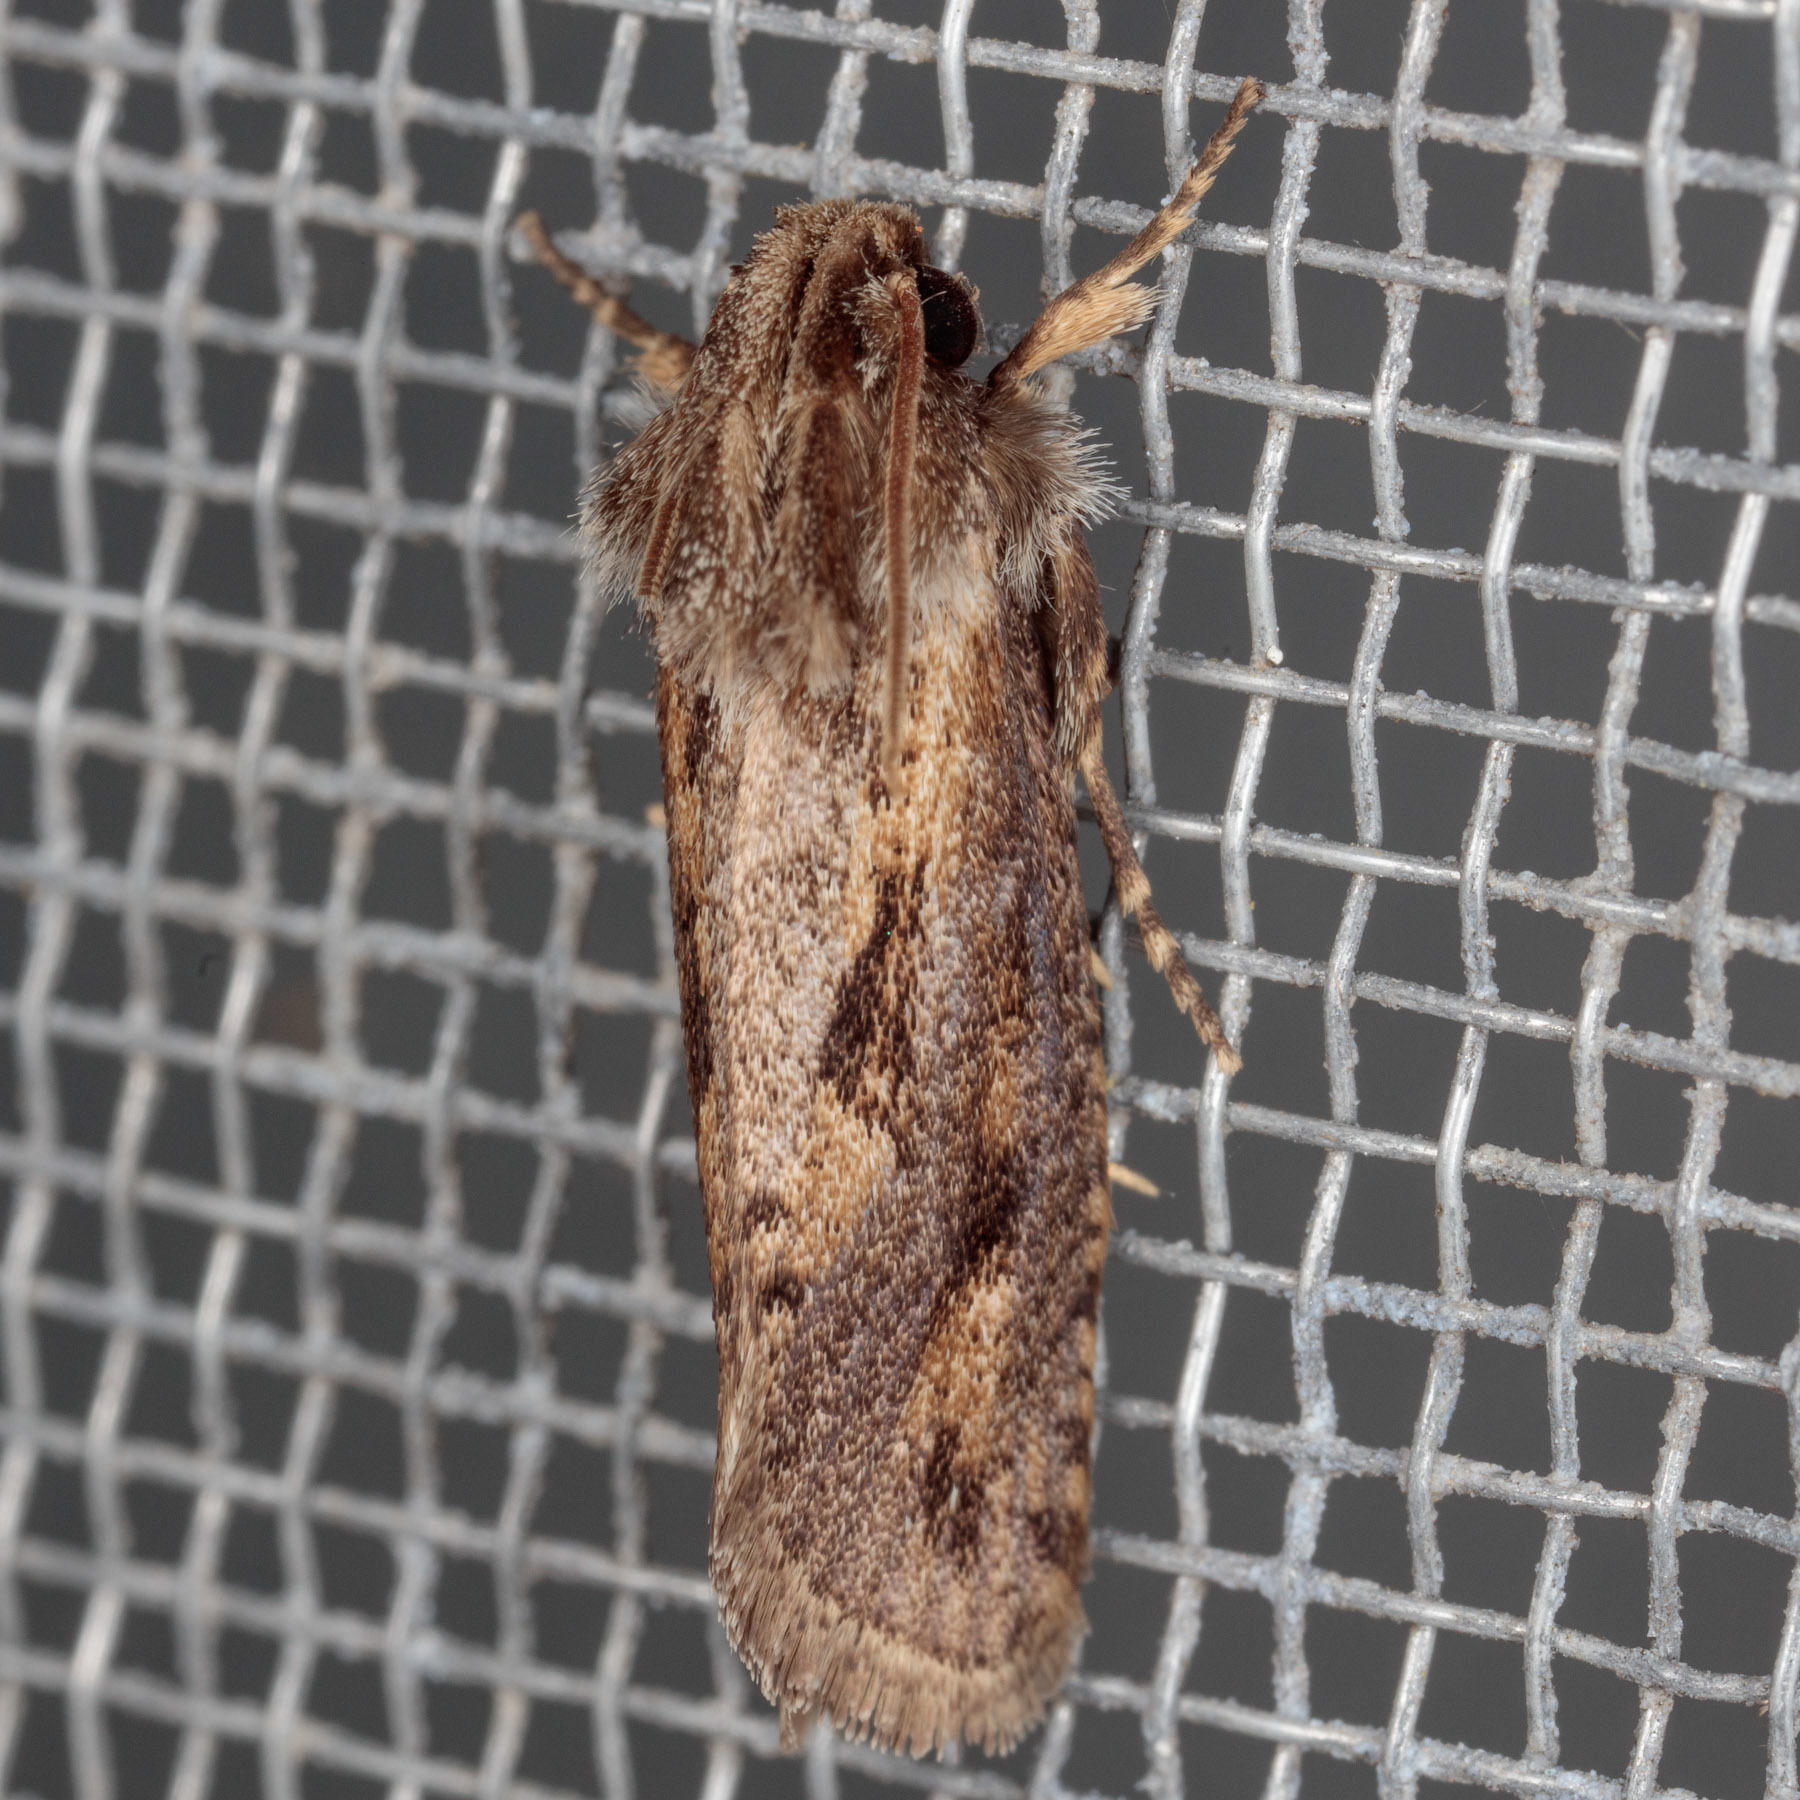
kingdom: Animalia
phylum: Arthropoda
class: Insecta
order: Lepidoptera
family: Tineidae
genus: Acrolophus
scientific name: Acrolophus popeanella
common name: Clemens' grass tubeworm moth
